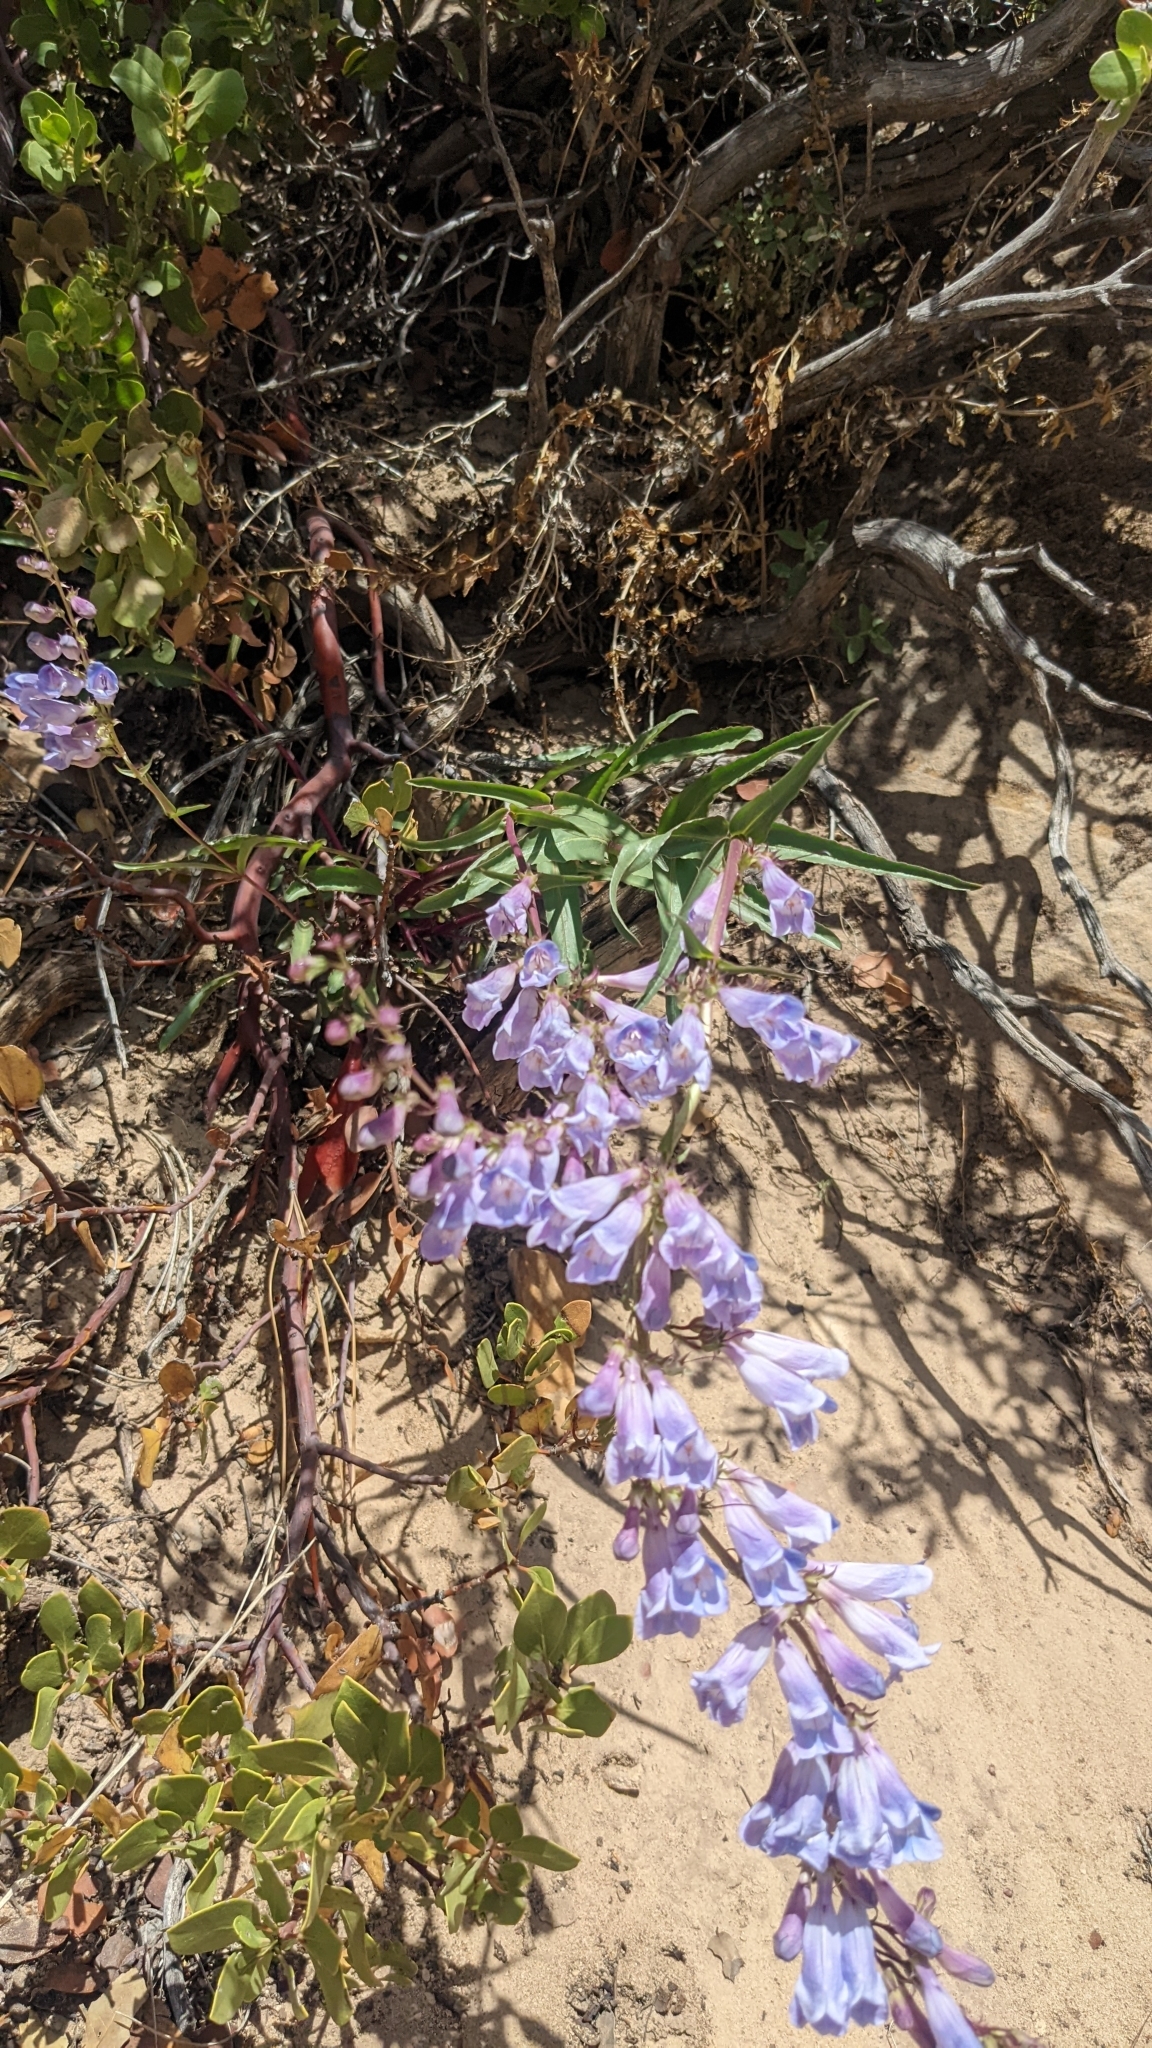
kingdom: Plantae
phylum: Tracheophyta
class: Magnoliopsida
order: Lamiales
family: Plantaginaceae
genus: Penstemon
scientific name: Penstemon laevis
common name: Smooth penstemon
